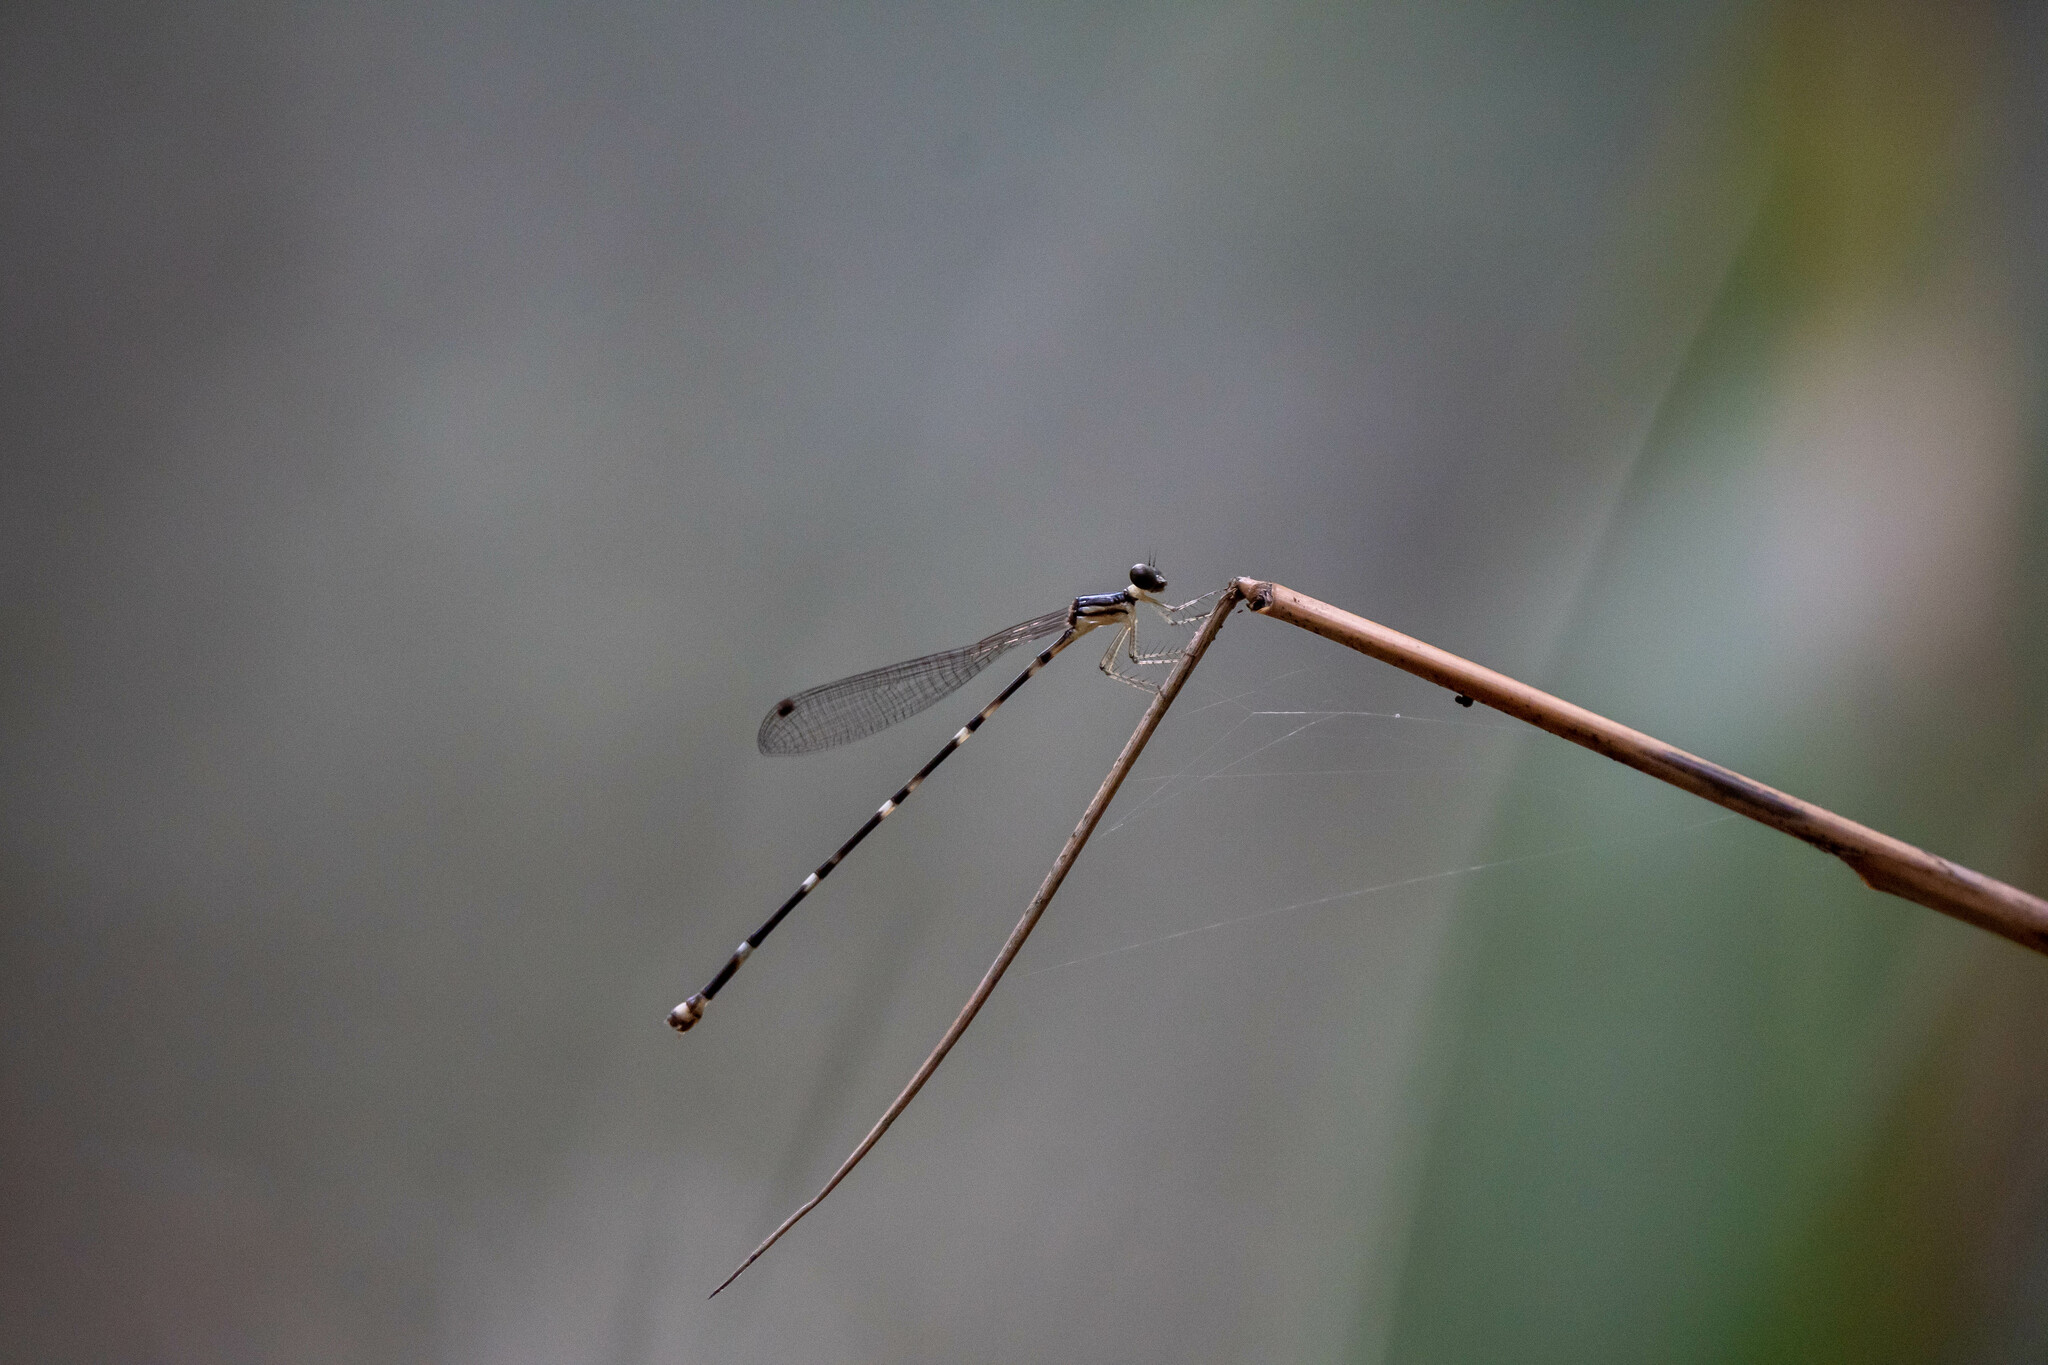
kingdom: Animalia
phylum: Arthropoda
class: Insecta
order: Odonata
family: Platystictidae
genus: Protosticta
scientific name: Protosticta beaumonti
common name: Short-winged shadowdamsel
